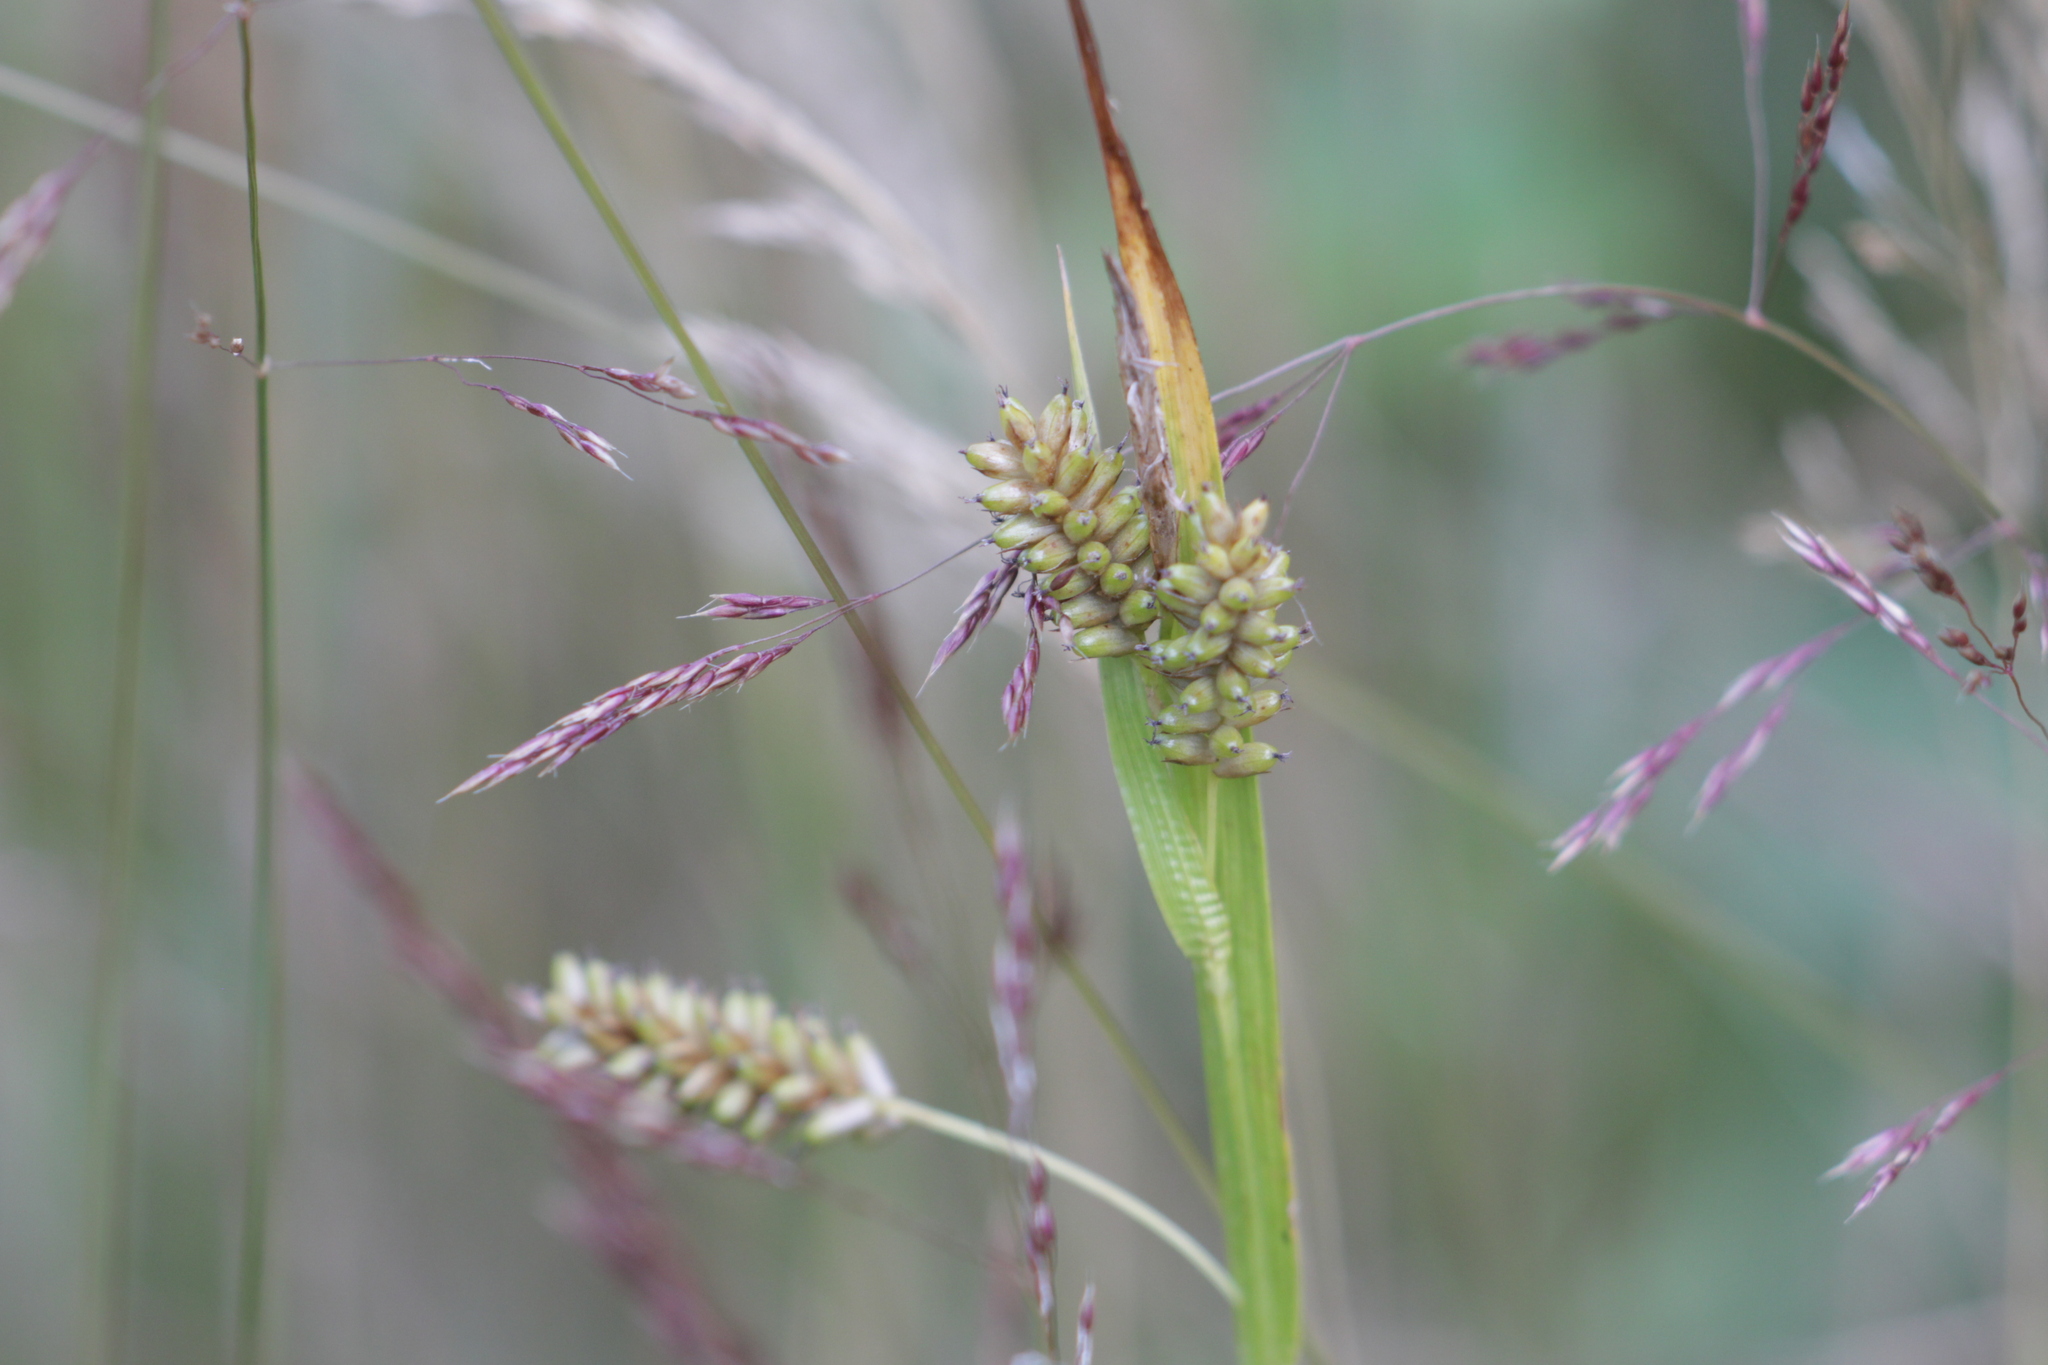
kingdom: Plantae
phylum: Tracheophyta
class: Liliopsida
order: Poales
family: Cyperaceae
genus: Carex
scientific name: Carex pallescens
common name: Pale sedge
